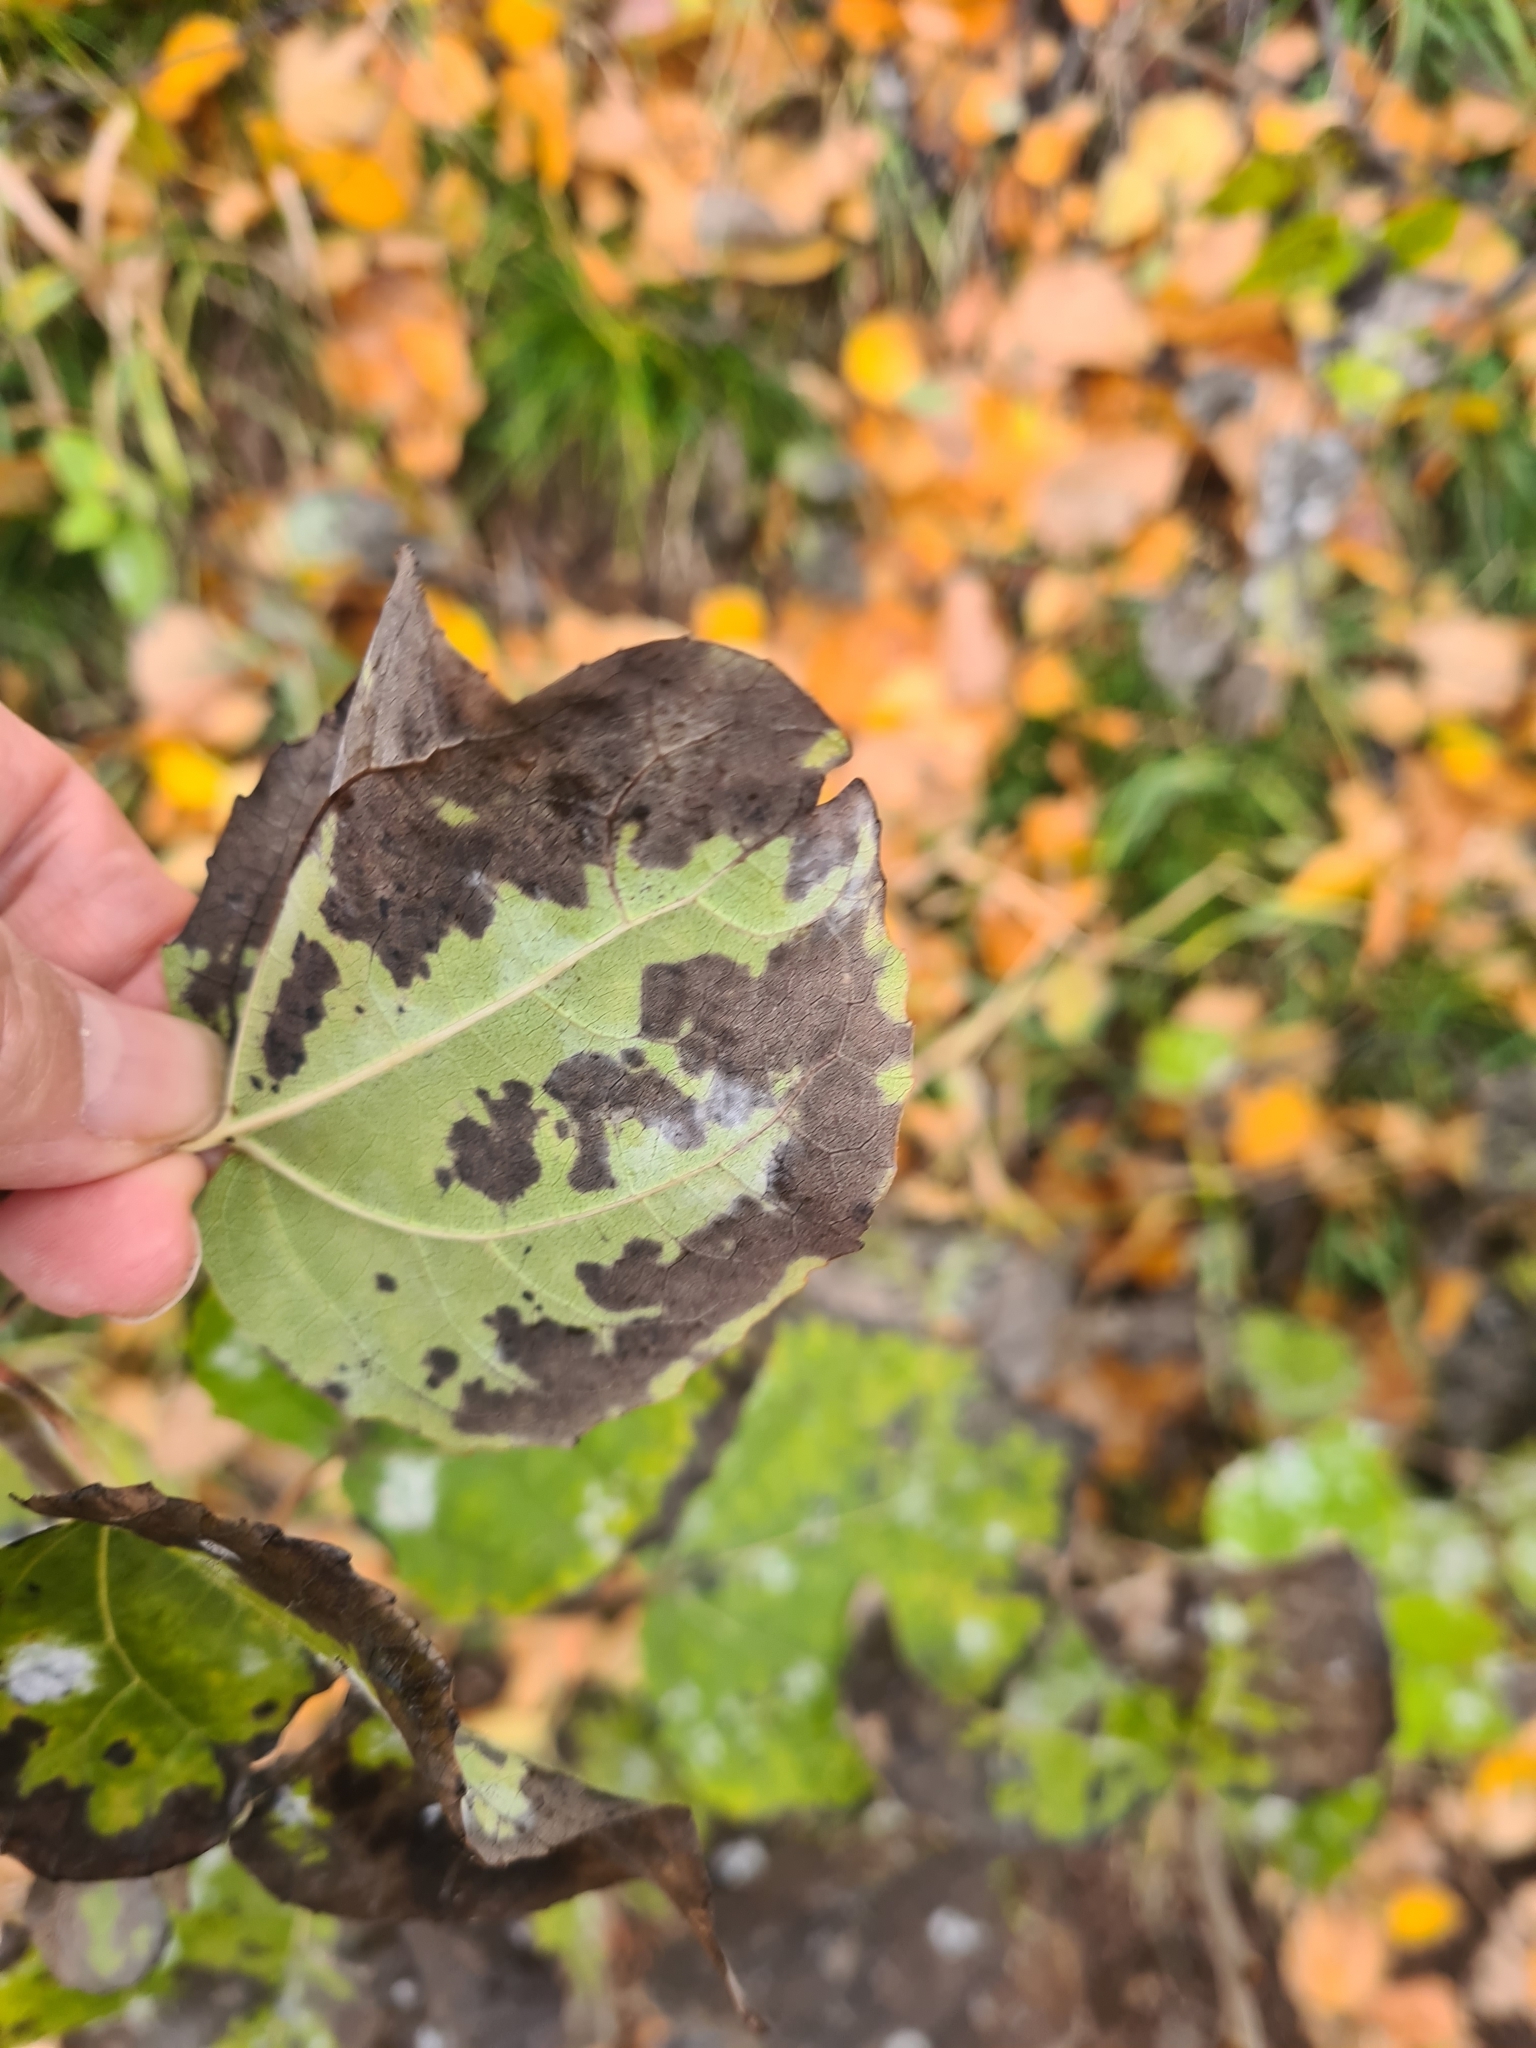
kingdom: Fungi
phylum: Ascomycota
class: Leotiomycetes
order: Helotiales
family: Erysiphaceae
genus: Erysiphe
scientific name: Erysiphe adunca
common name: Willow mildew
